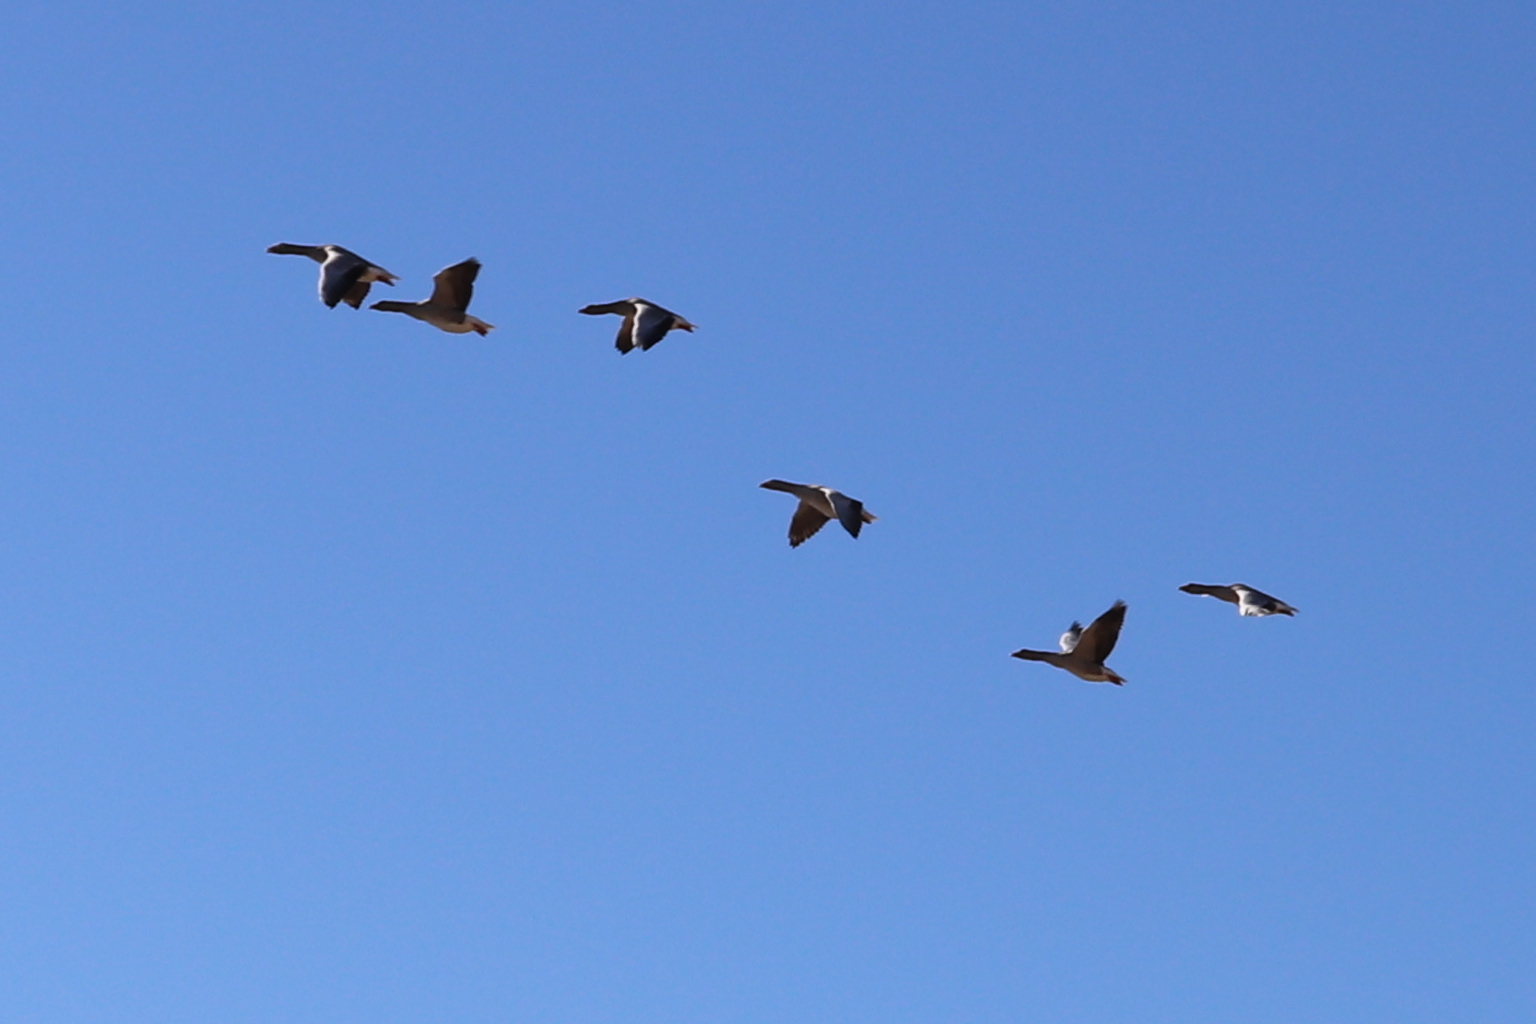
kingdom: Animalia
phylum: Chordata
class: Aves
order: Anseriformes
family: Anatidae
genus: Branta
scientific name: Branta canadensis
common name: Canada goose
